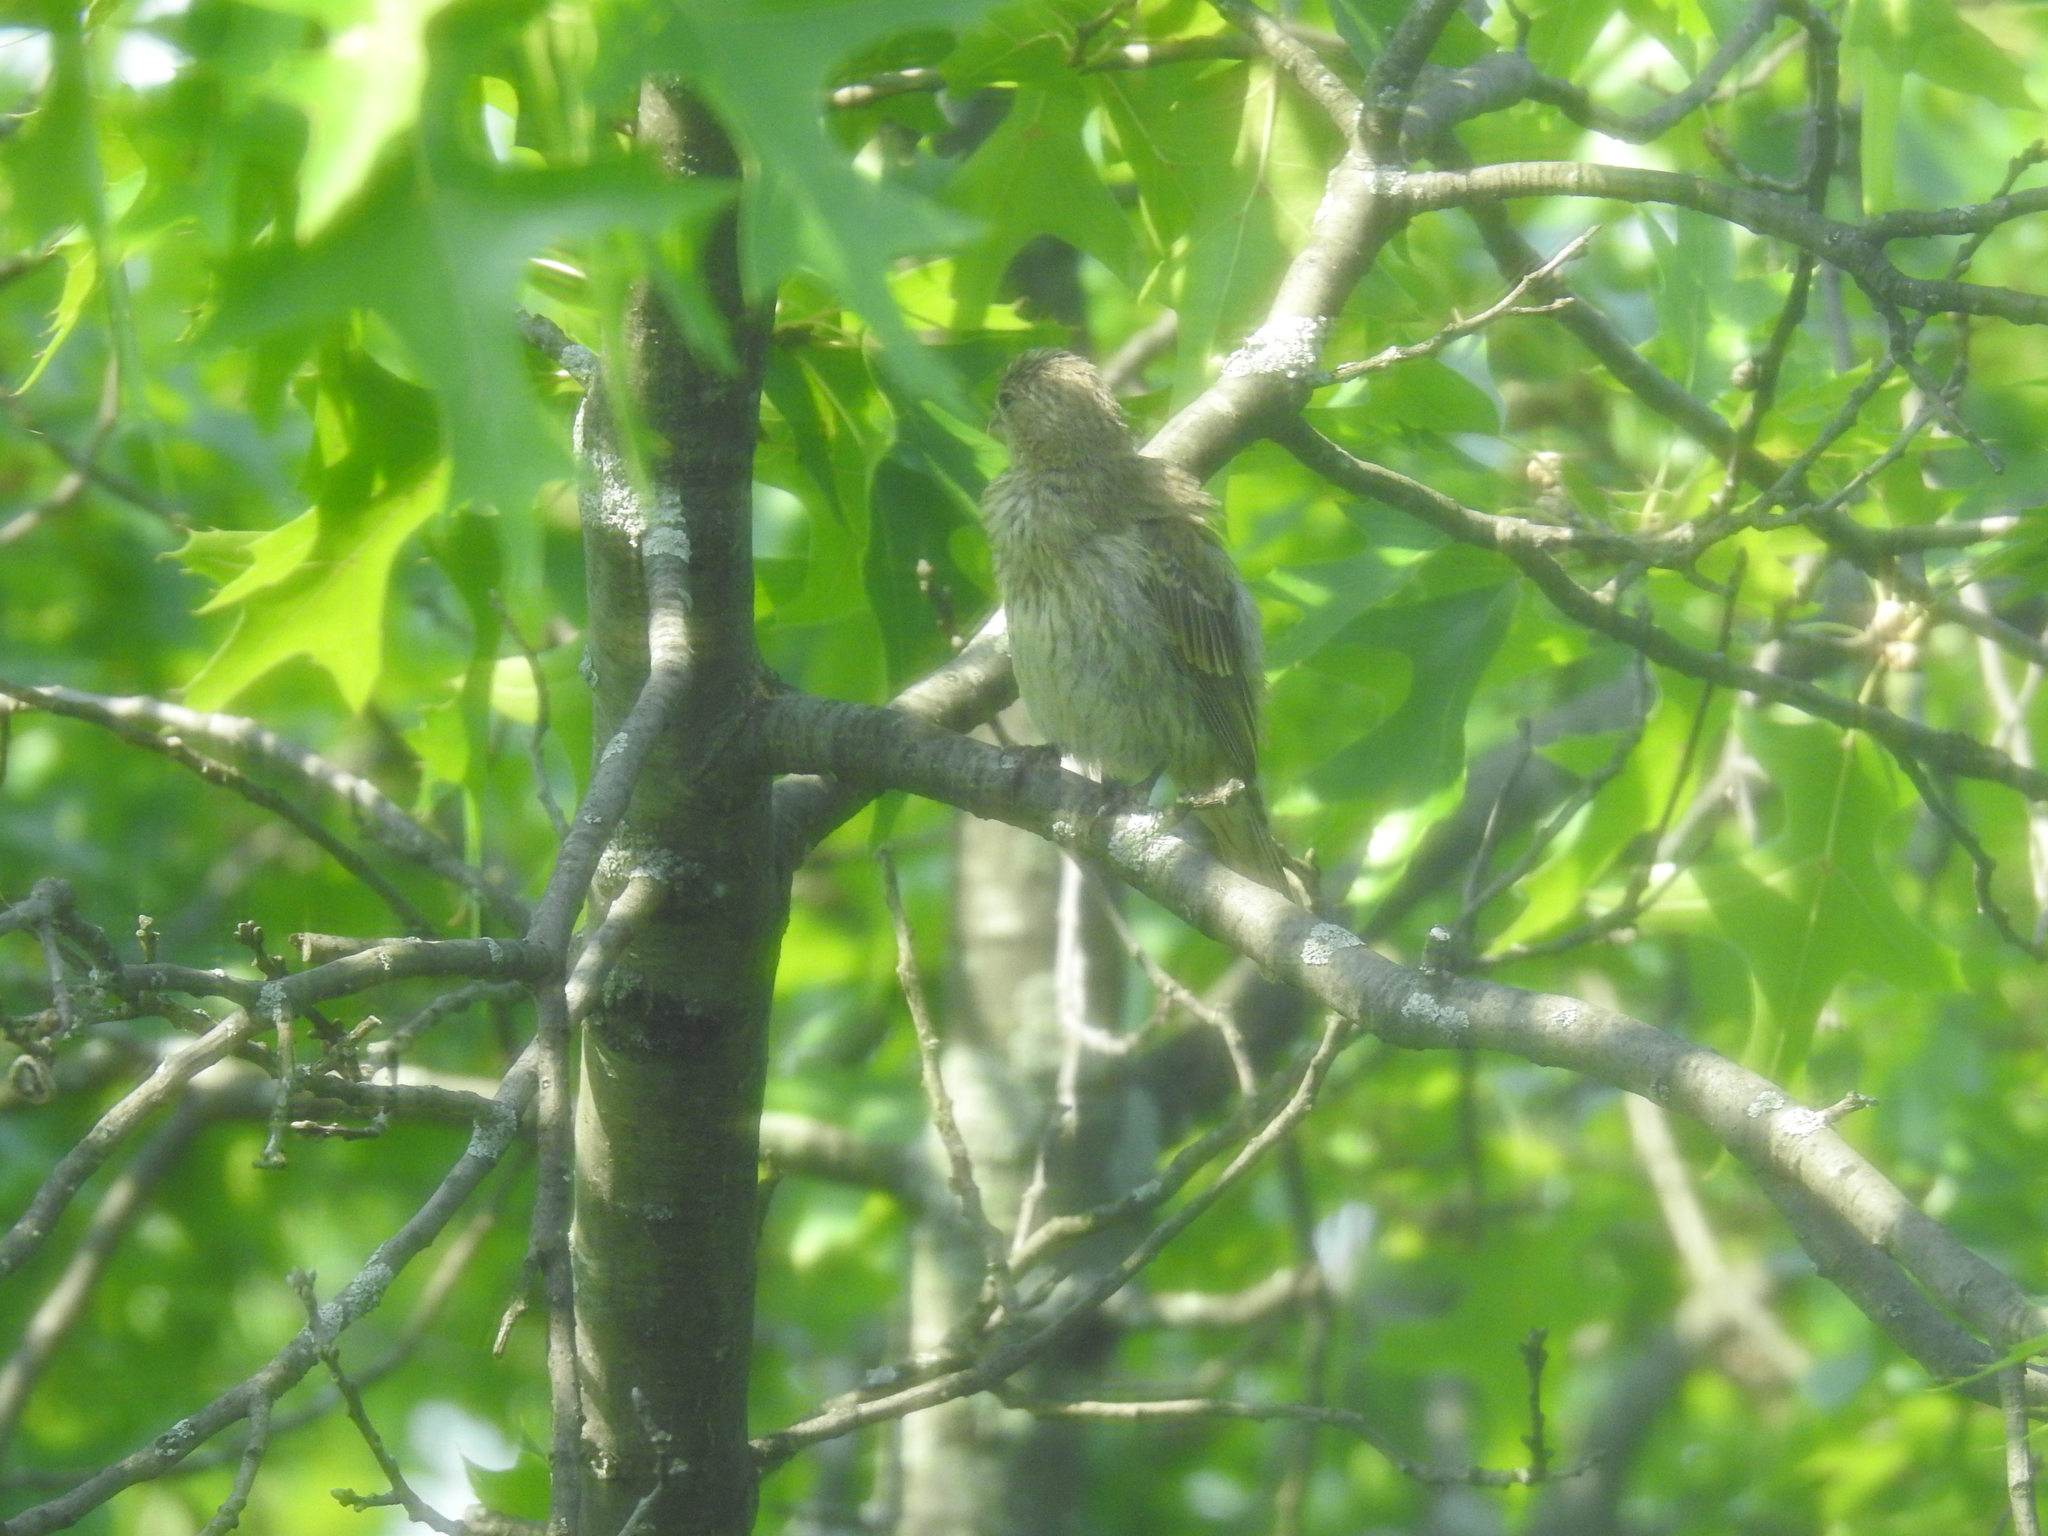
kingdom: Animalia
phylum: Chordata
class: Aves
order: Passeriformes
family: Fringillidae
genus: Haemorhous
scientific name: Haemorhous mexicanus
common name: House finch
